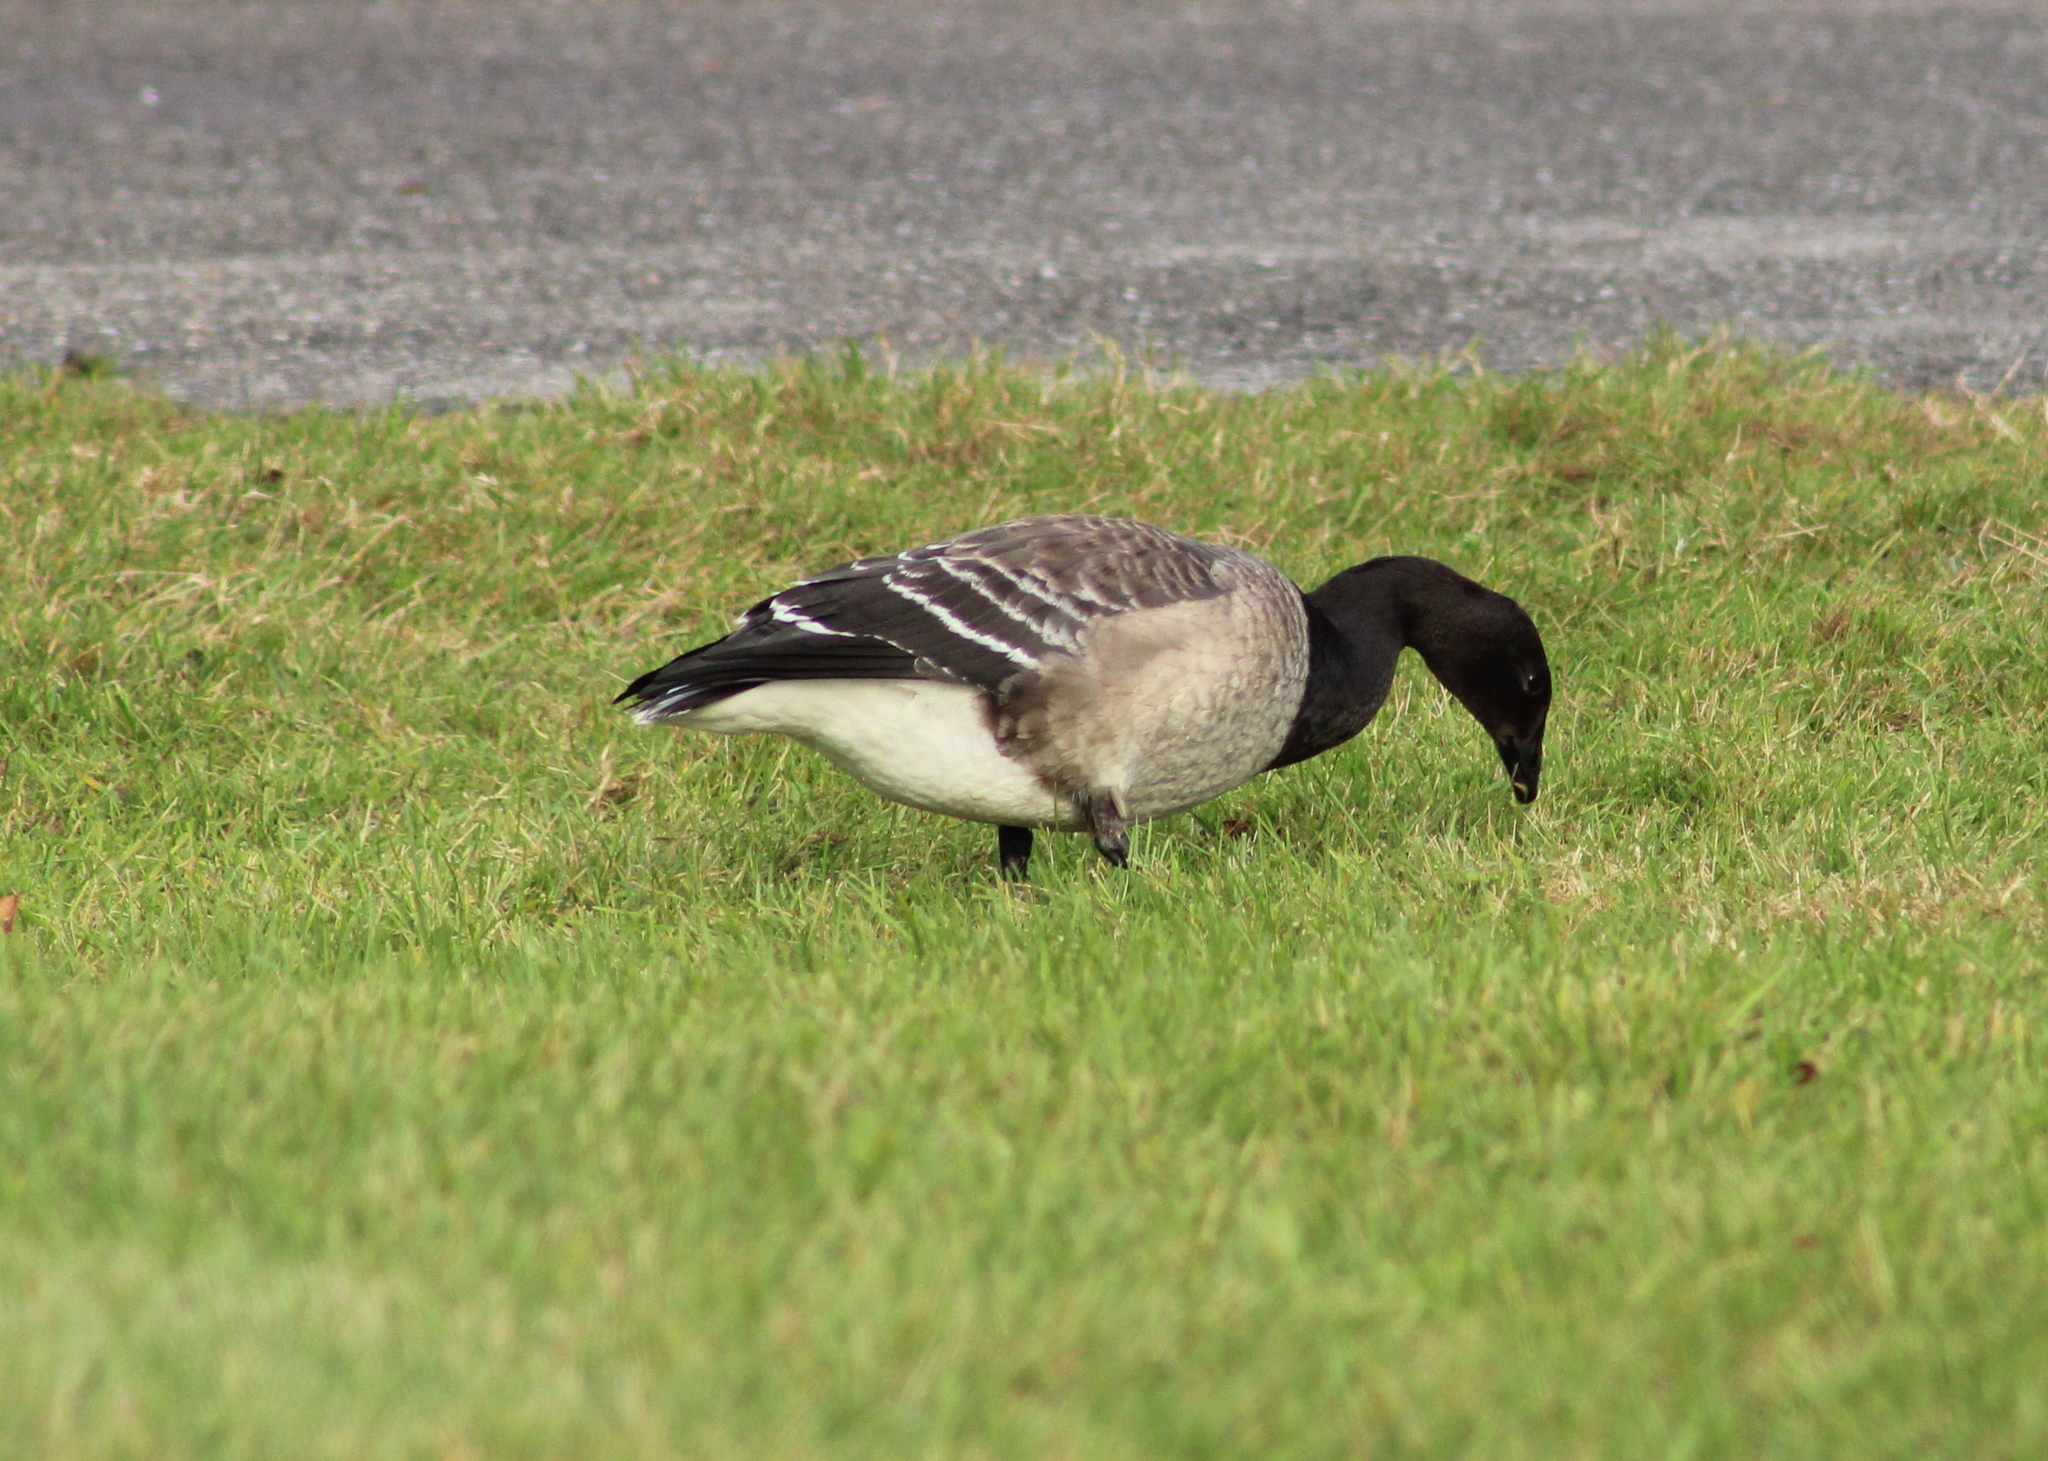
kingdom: Animalia
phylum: Chordata
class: Aves
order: Anseriformes
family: Anatidae
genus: Branta
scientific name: Branta bernicla
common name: Brant goose
